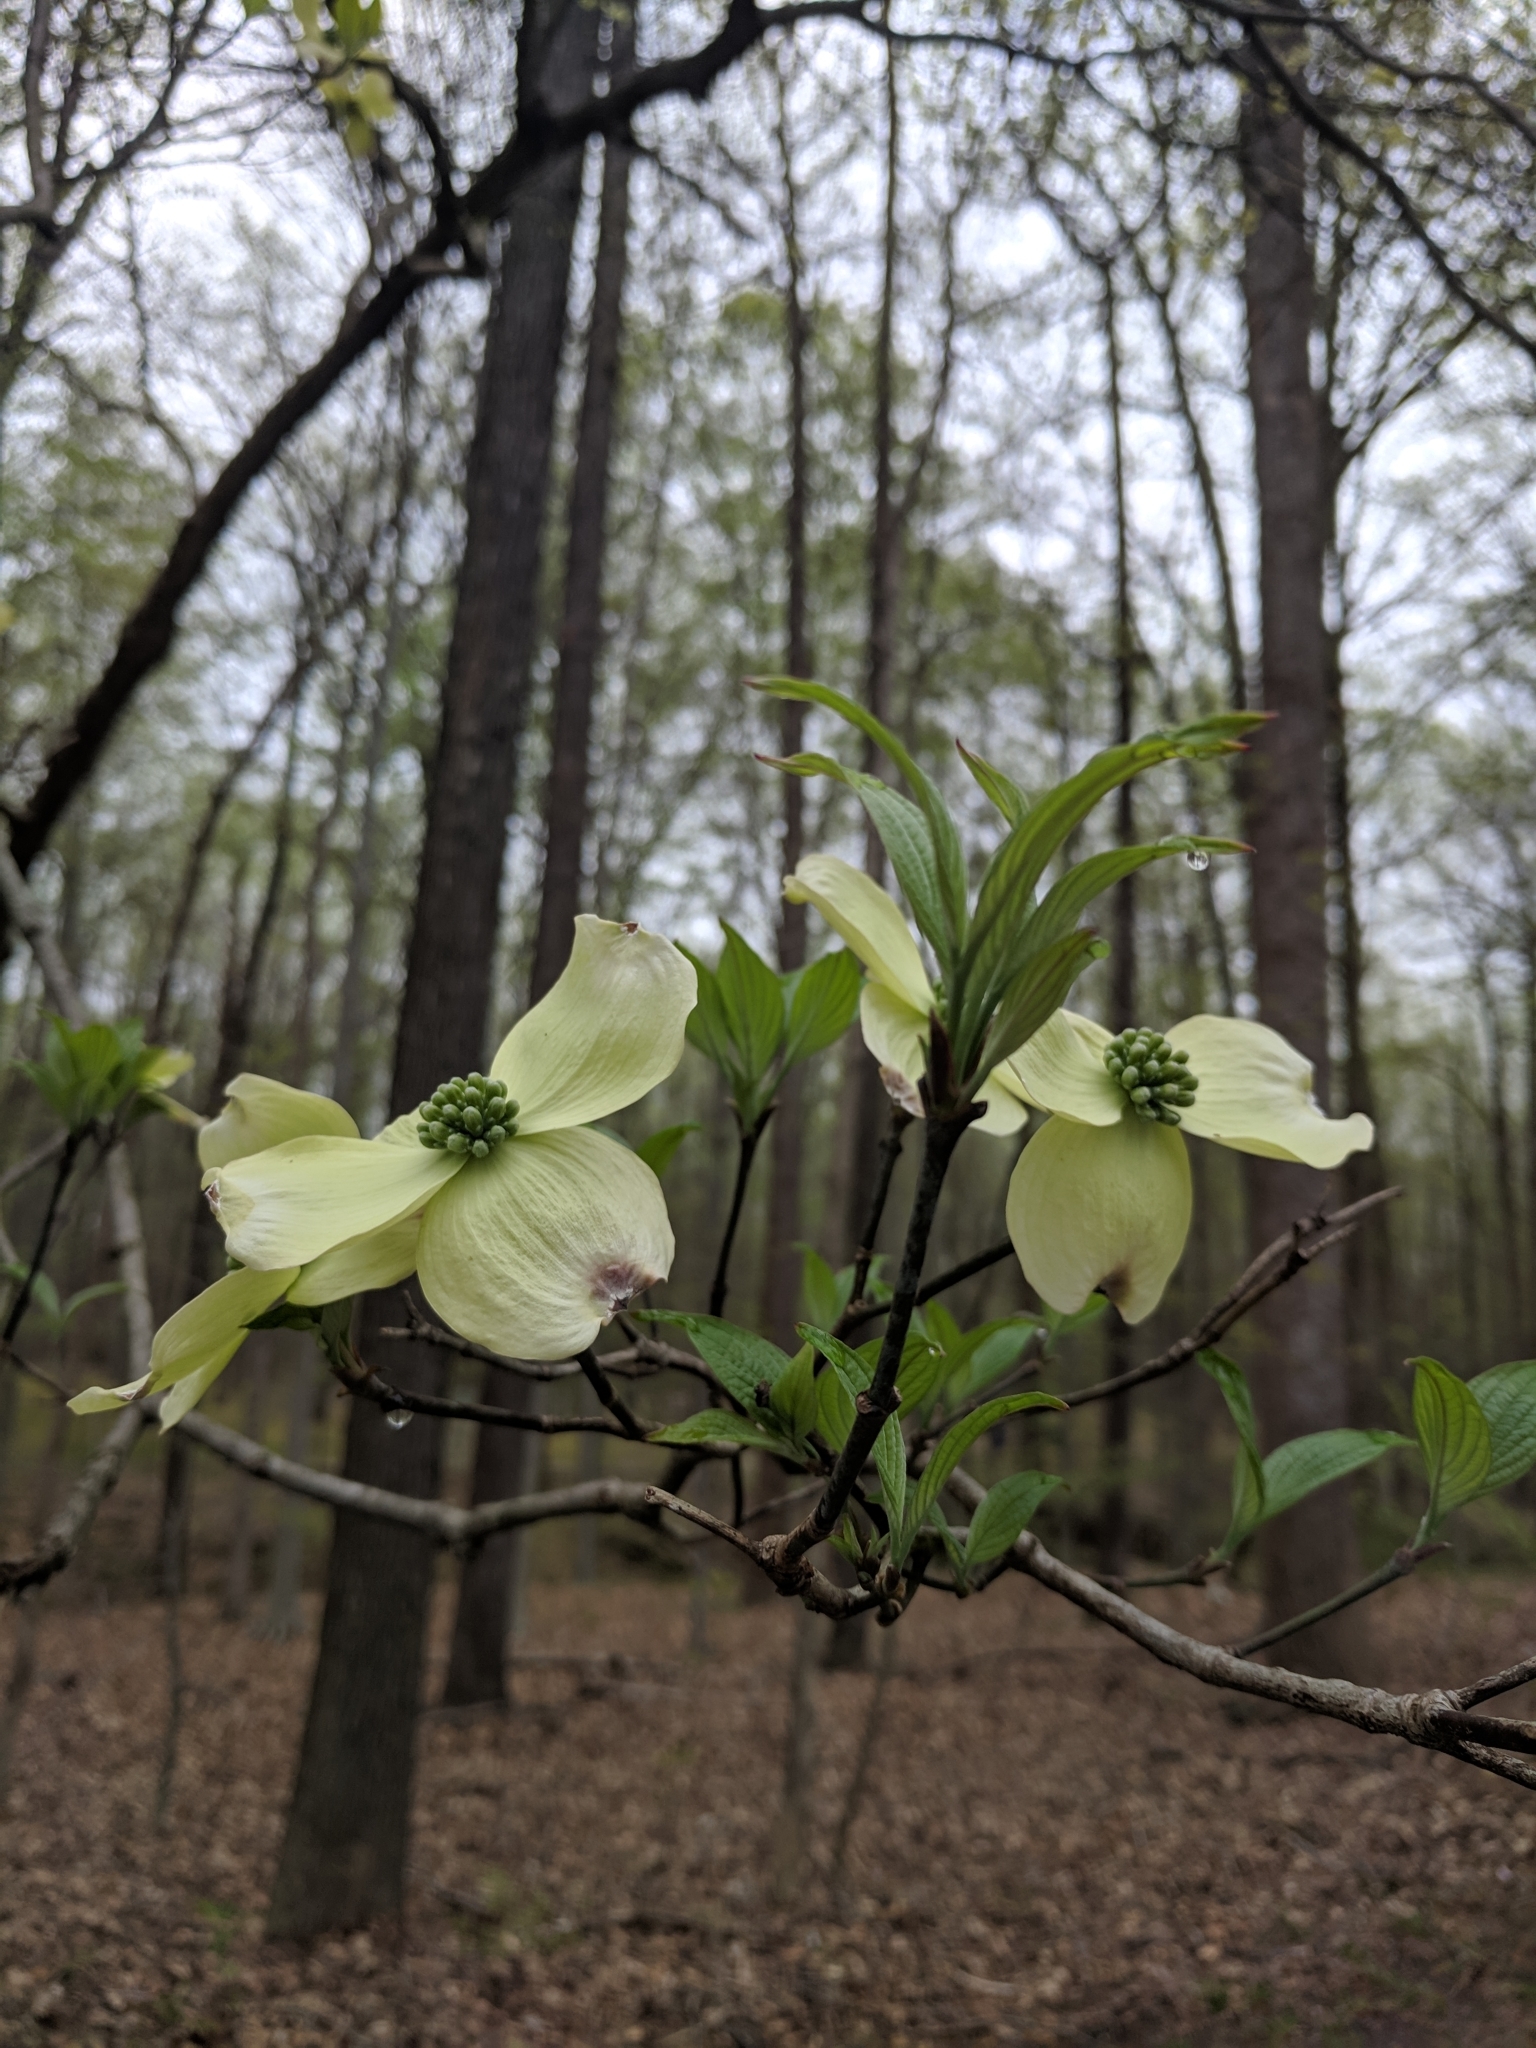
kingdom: Plantae
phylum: Tracheophyta
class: Magnoliopsida
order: Cornales
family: Cornaceae
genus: Cornus
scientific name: Cornus florida
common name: Flowering dogwood
